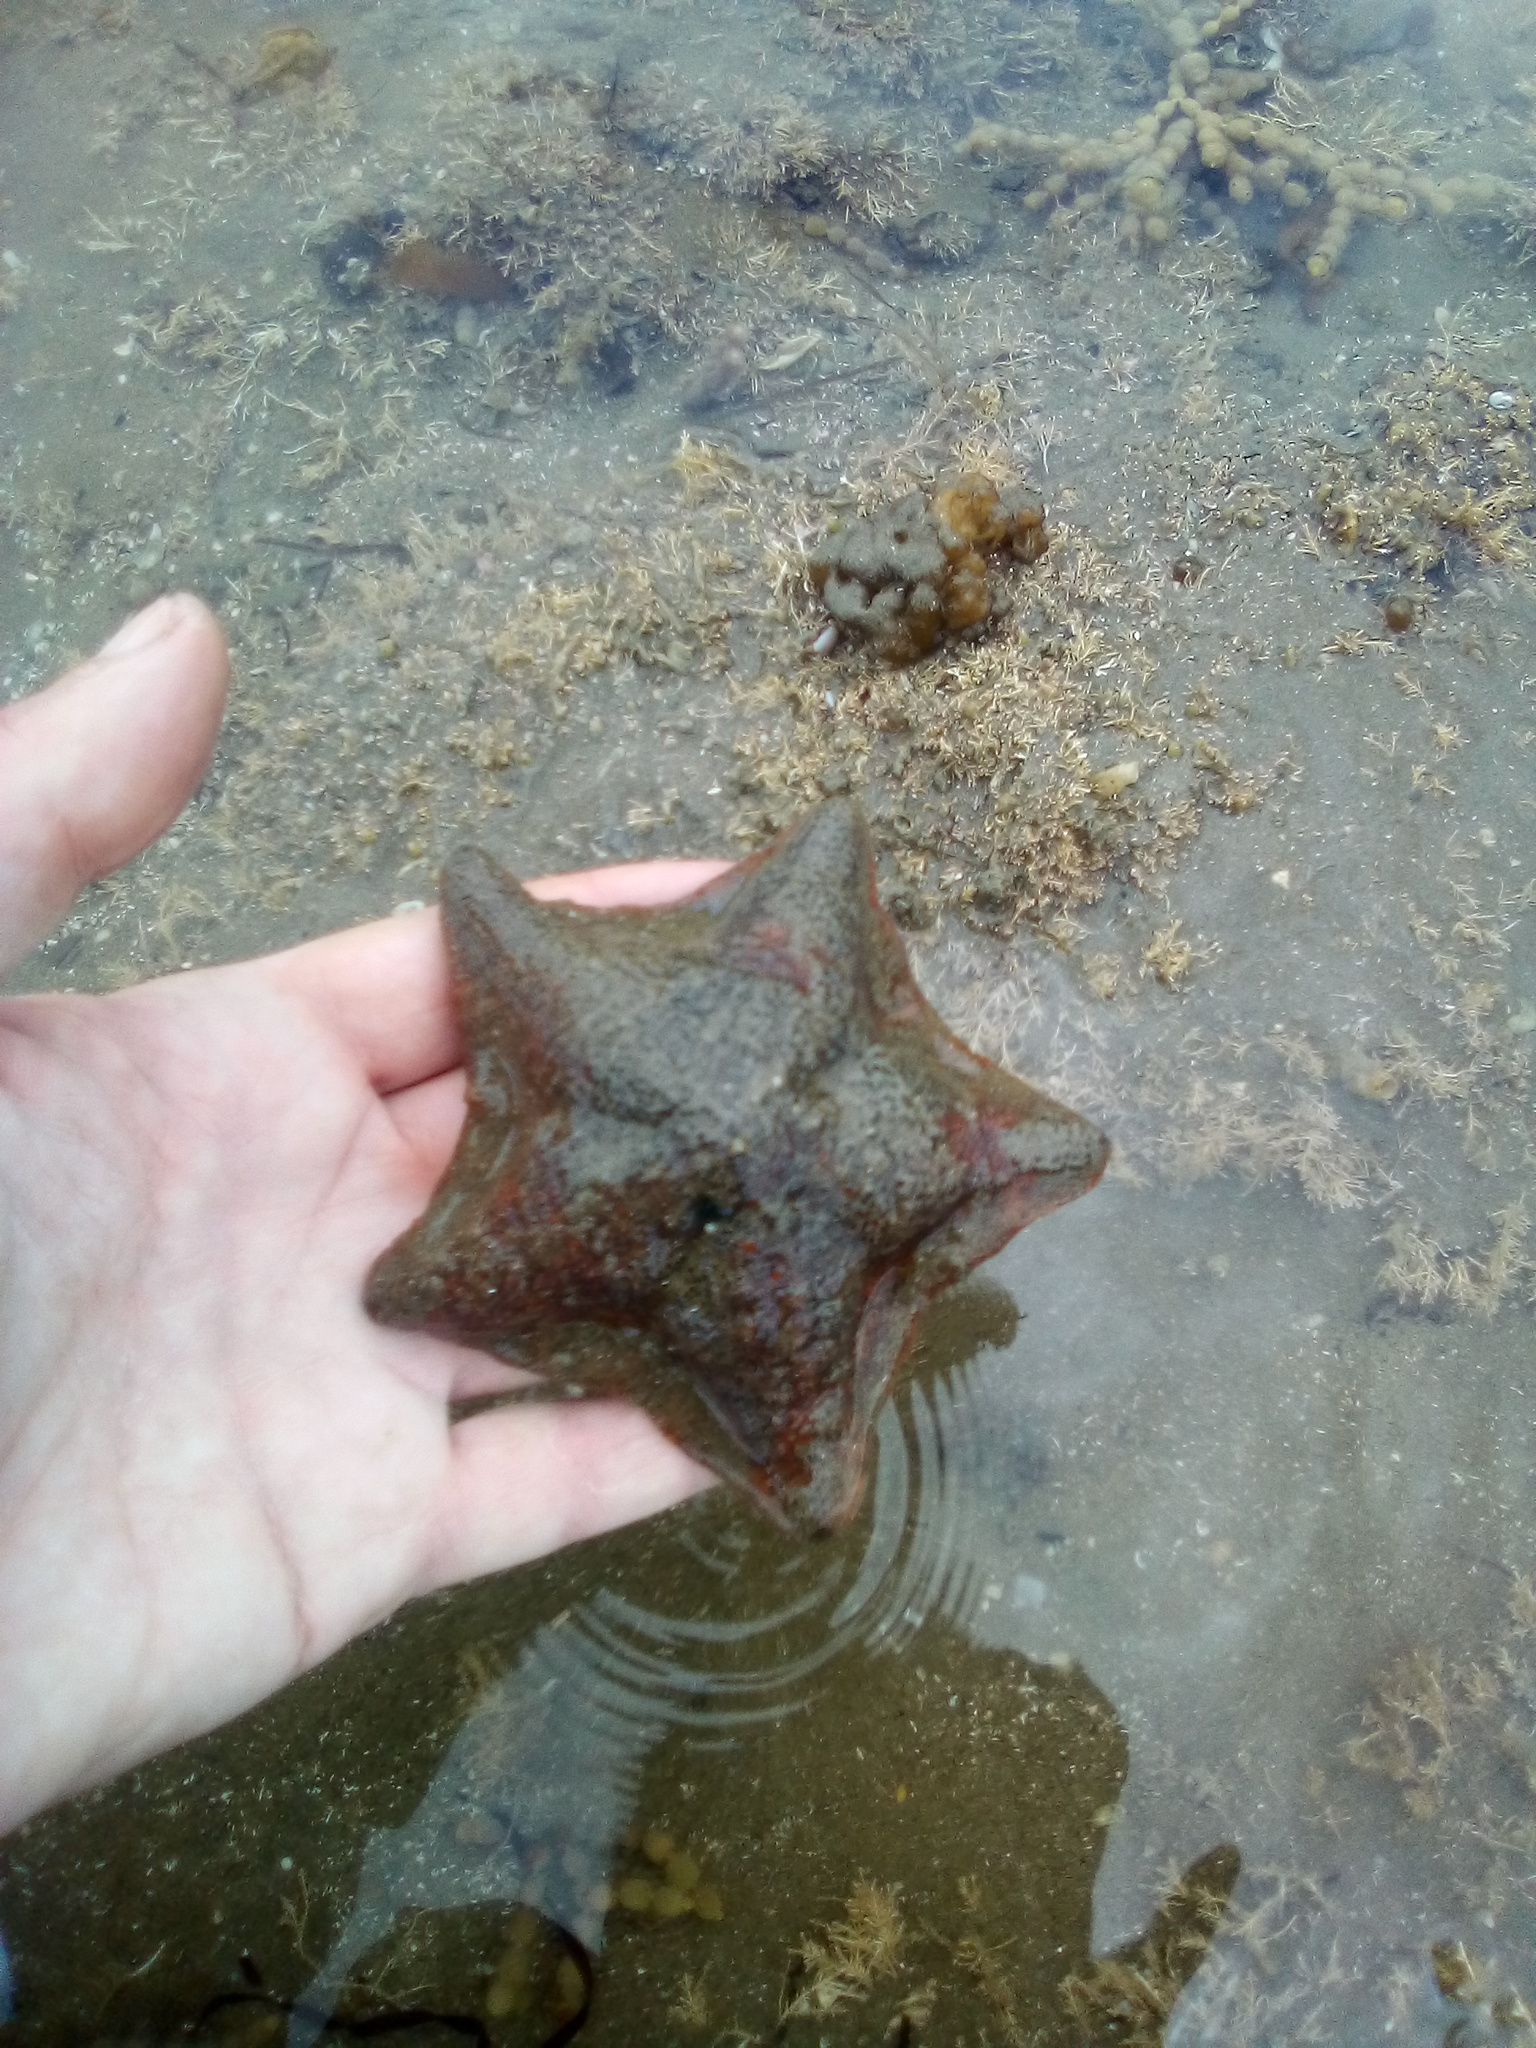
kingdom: Animalia
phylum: Echinodermata
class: Asteroidea
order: Valvatida
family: Asterinidae
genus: Patiriella
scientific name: Patiriella regularis
